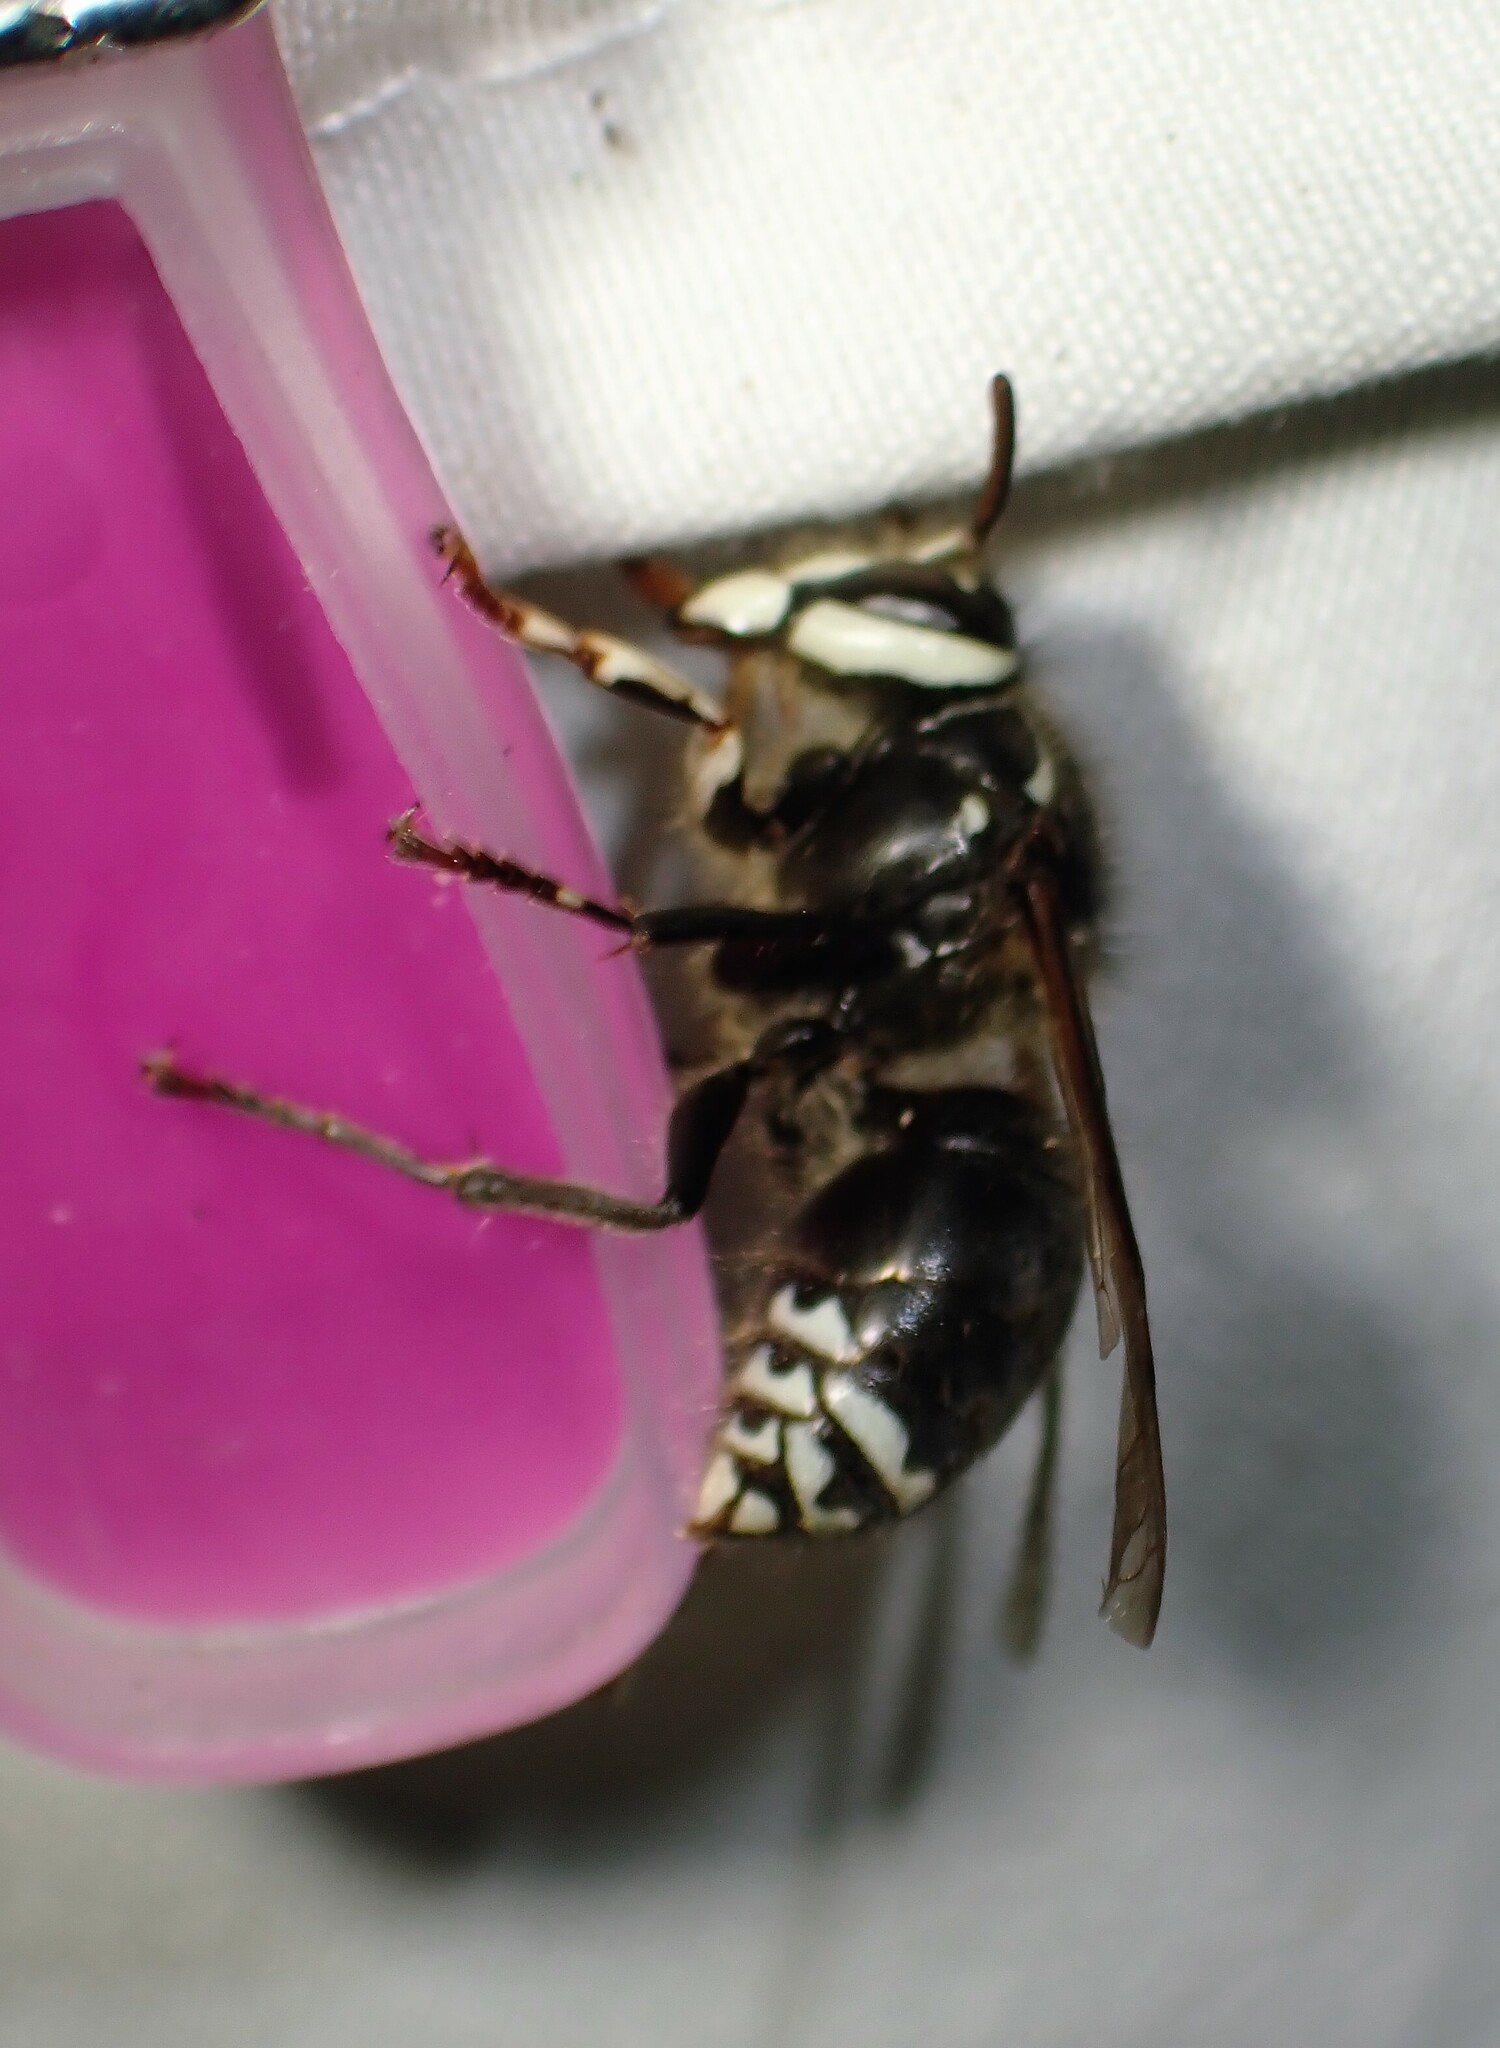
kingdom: Animalia
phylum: Arthropoda
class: Insecta
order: Hymenoptera
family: Vespidae
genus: Dolichovespula
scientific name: Dolichovespula maculata
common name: Bald-faced hornet
